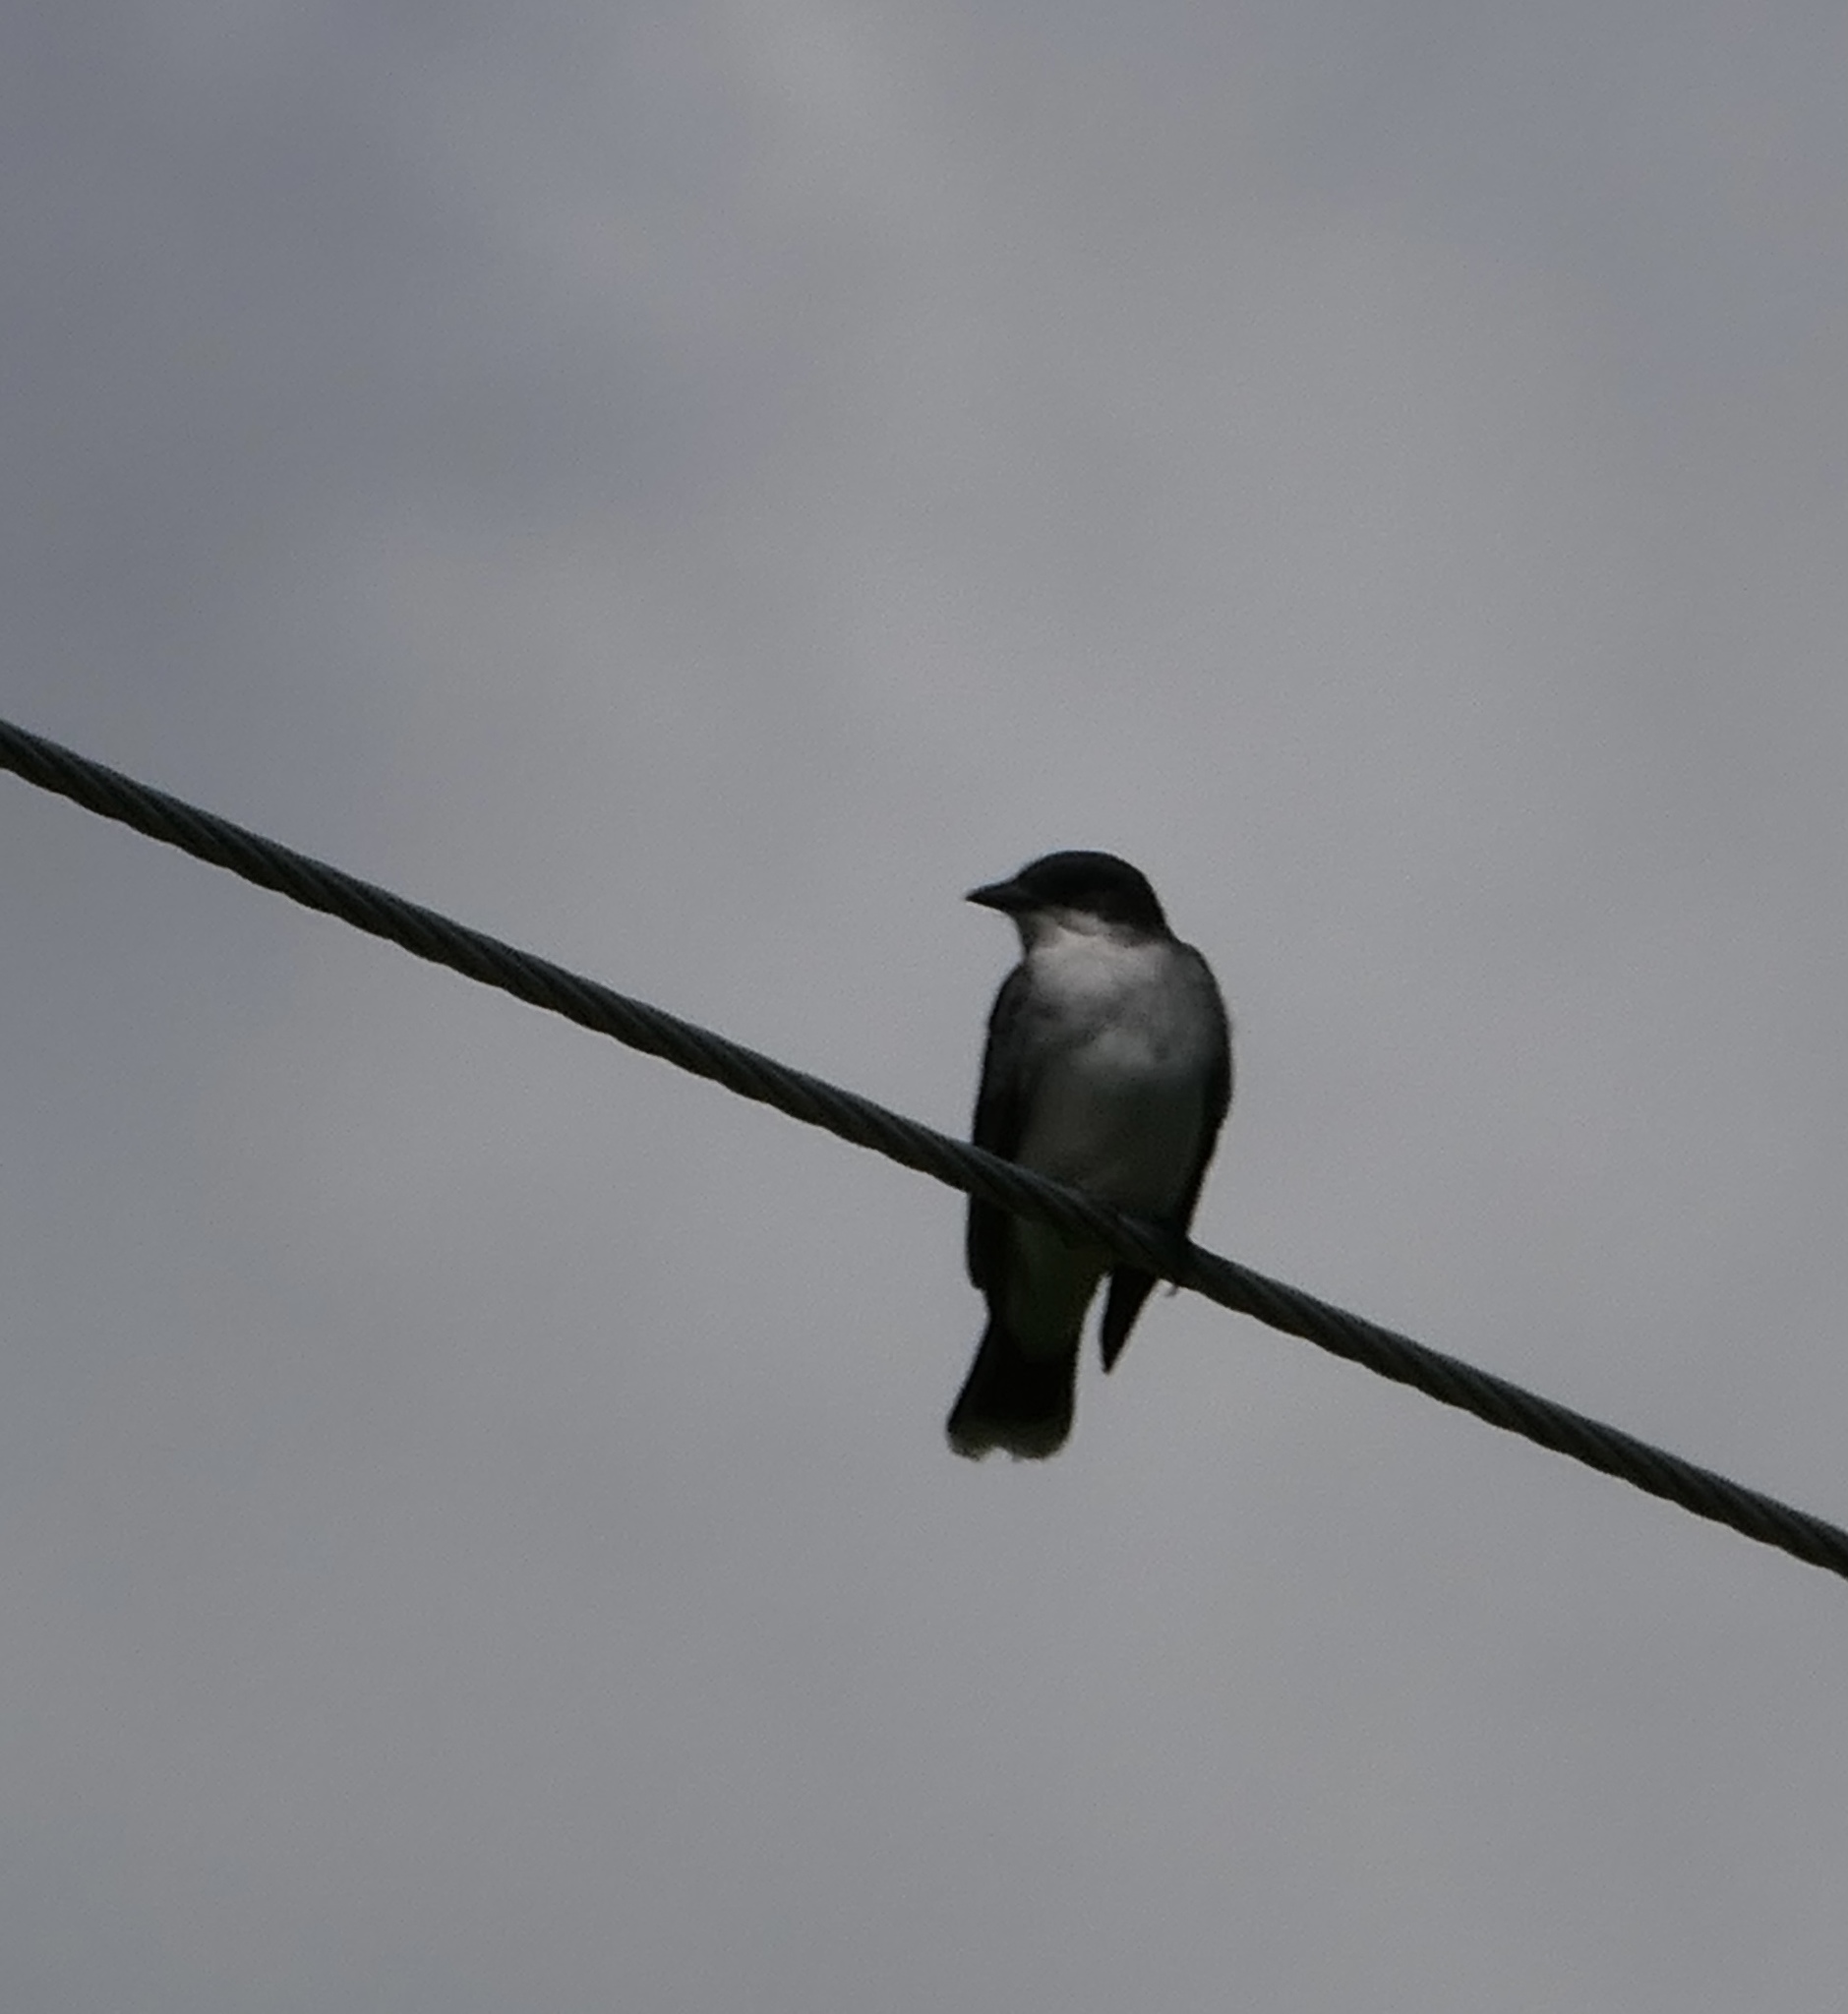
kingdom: Animalia
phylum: Chordata
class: Aves
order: Passeriformes
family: Tyrannidae
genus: Tyrannus
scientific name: Tyrannus tyrannus
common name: Eastern kingbird
